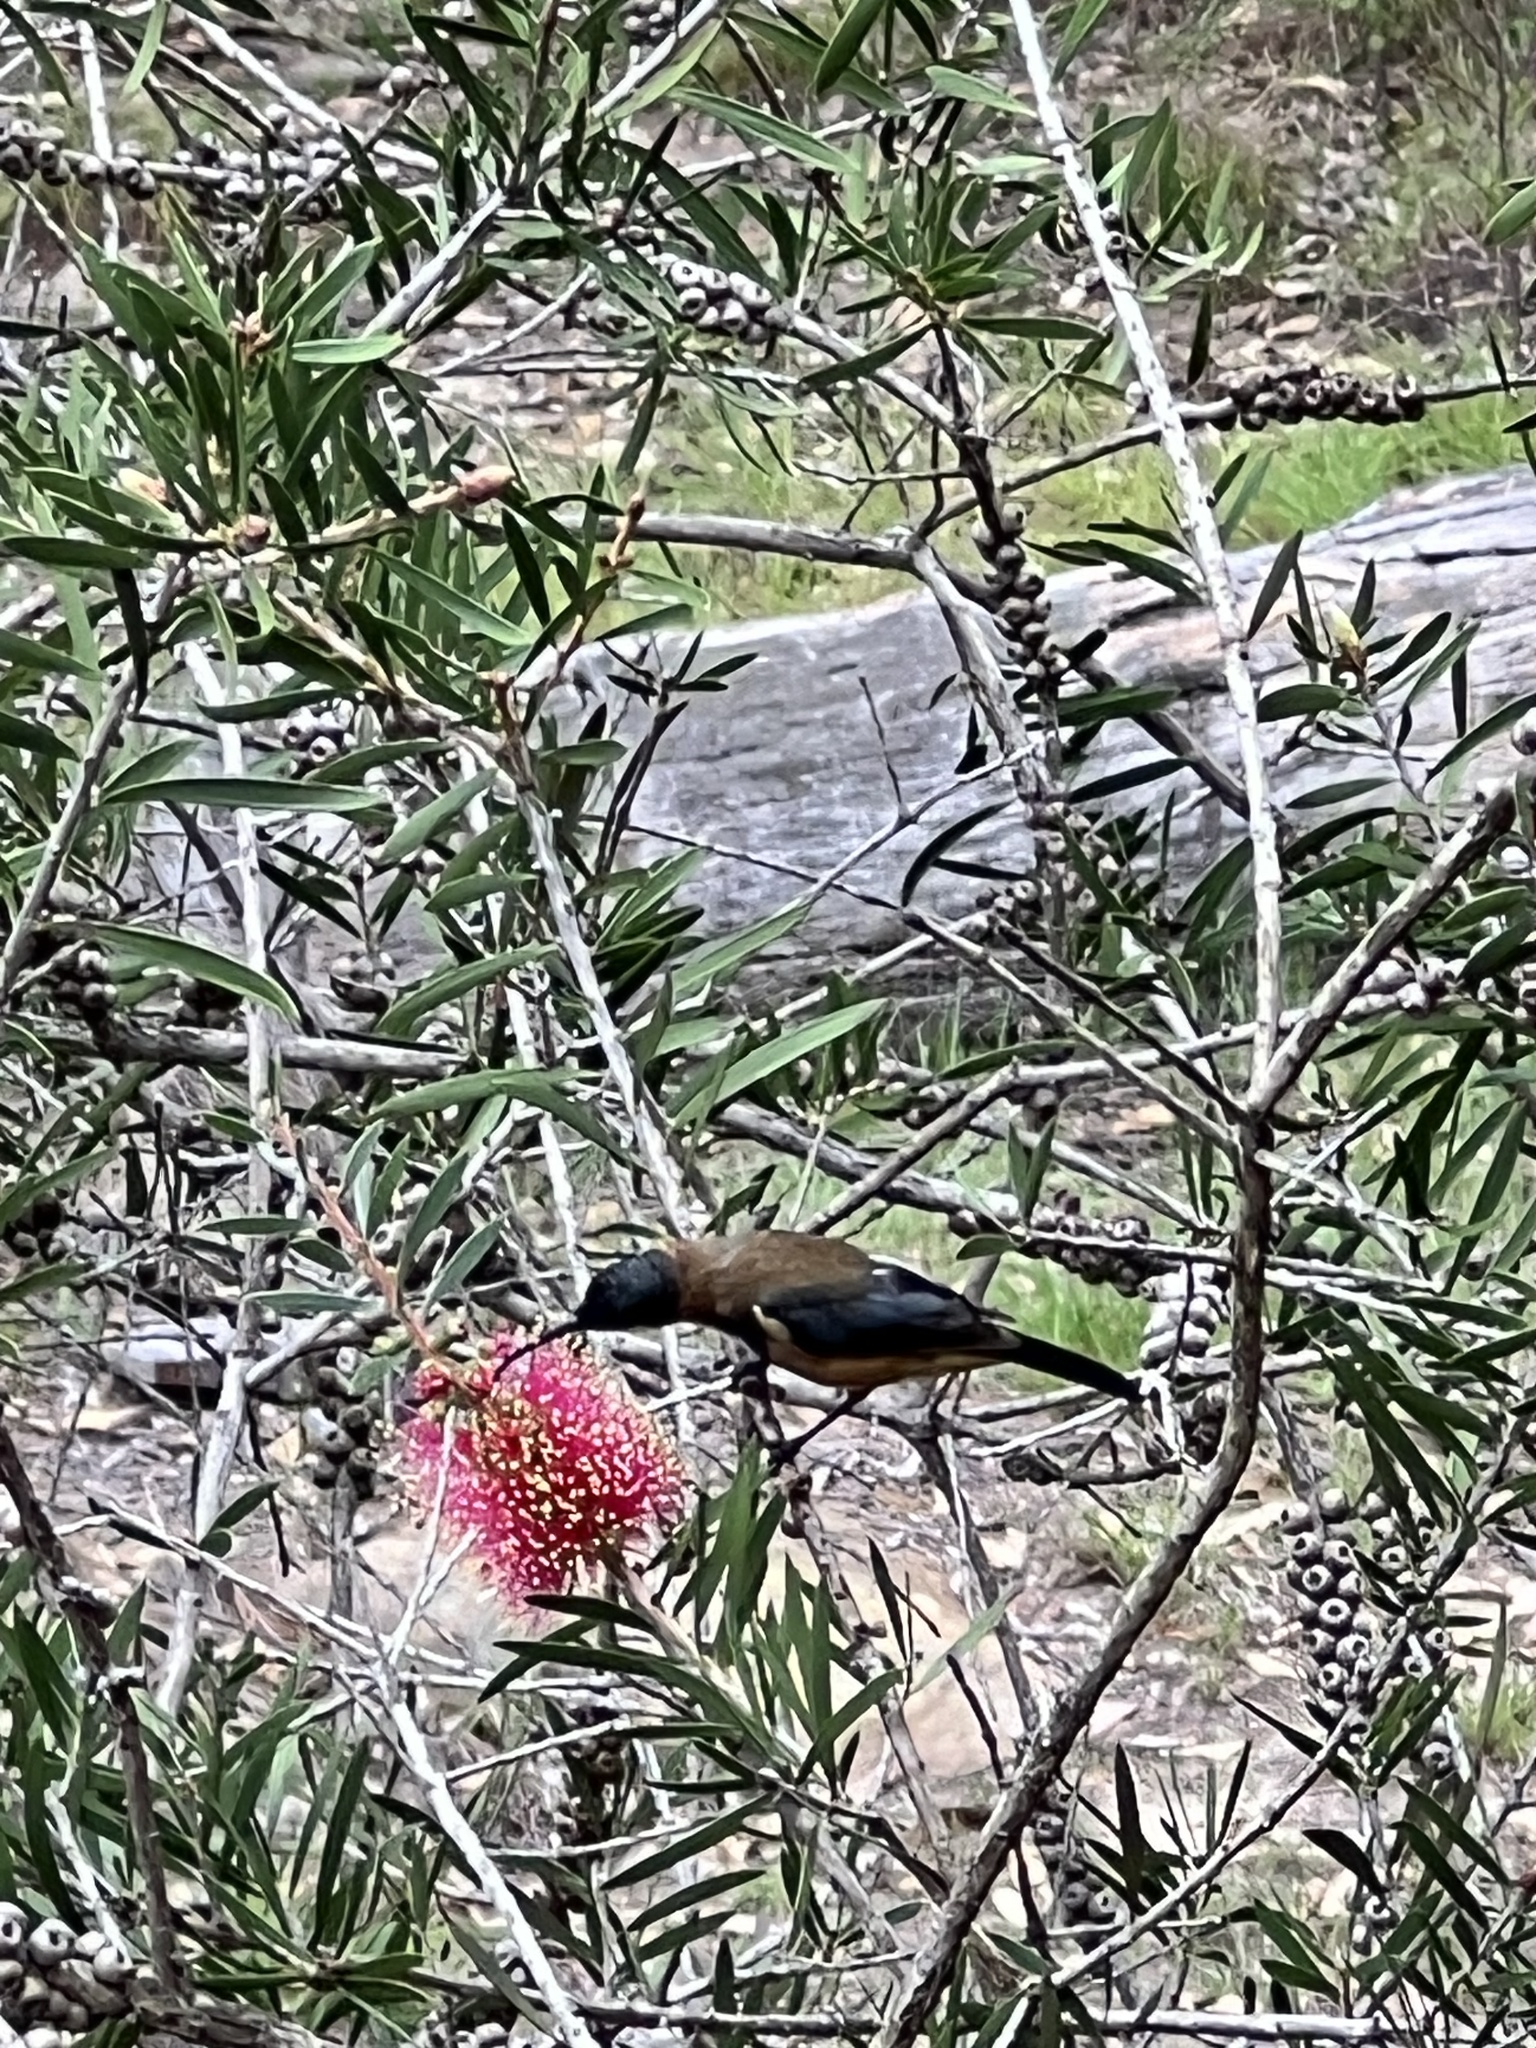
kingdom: Animalia
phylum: Chordata
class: Aves
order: Passeriformes
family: Meliphagidae
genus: Acanthorhynchus
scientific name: Acanthorhynchus tenuirostris
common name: Eastern spinebill
